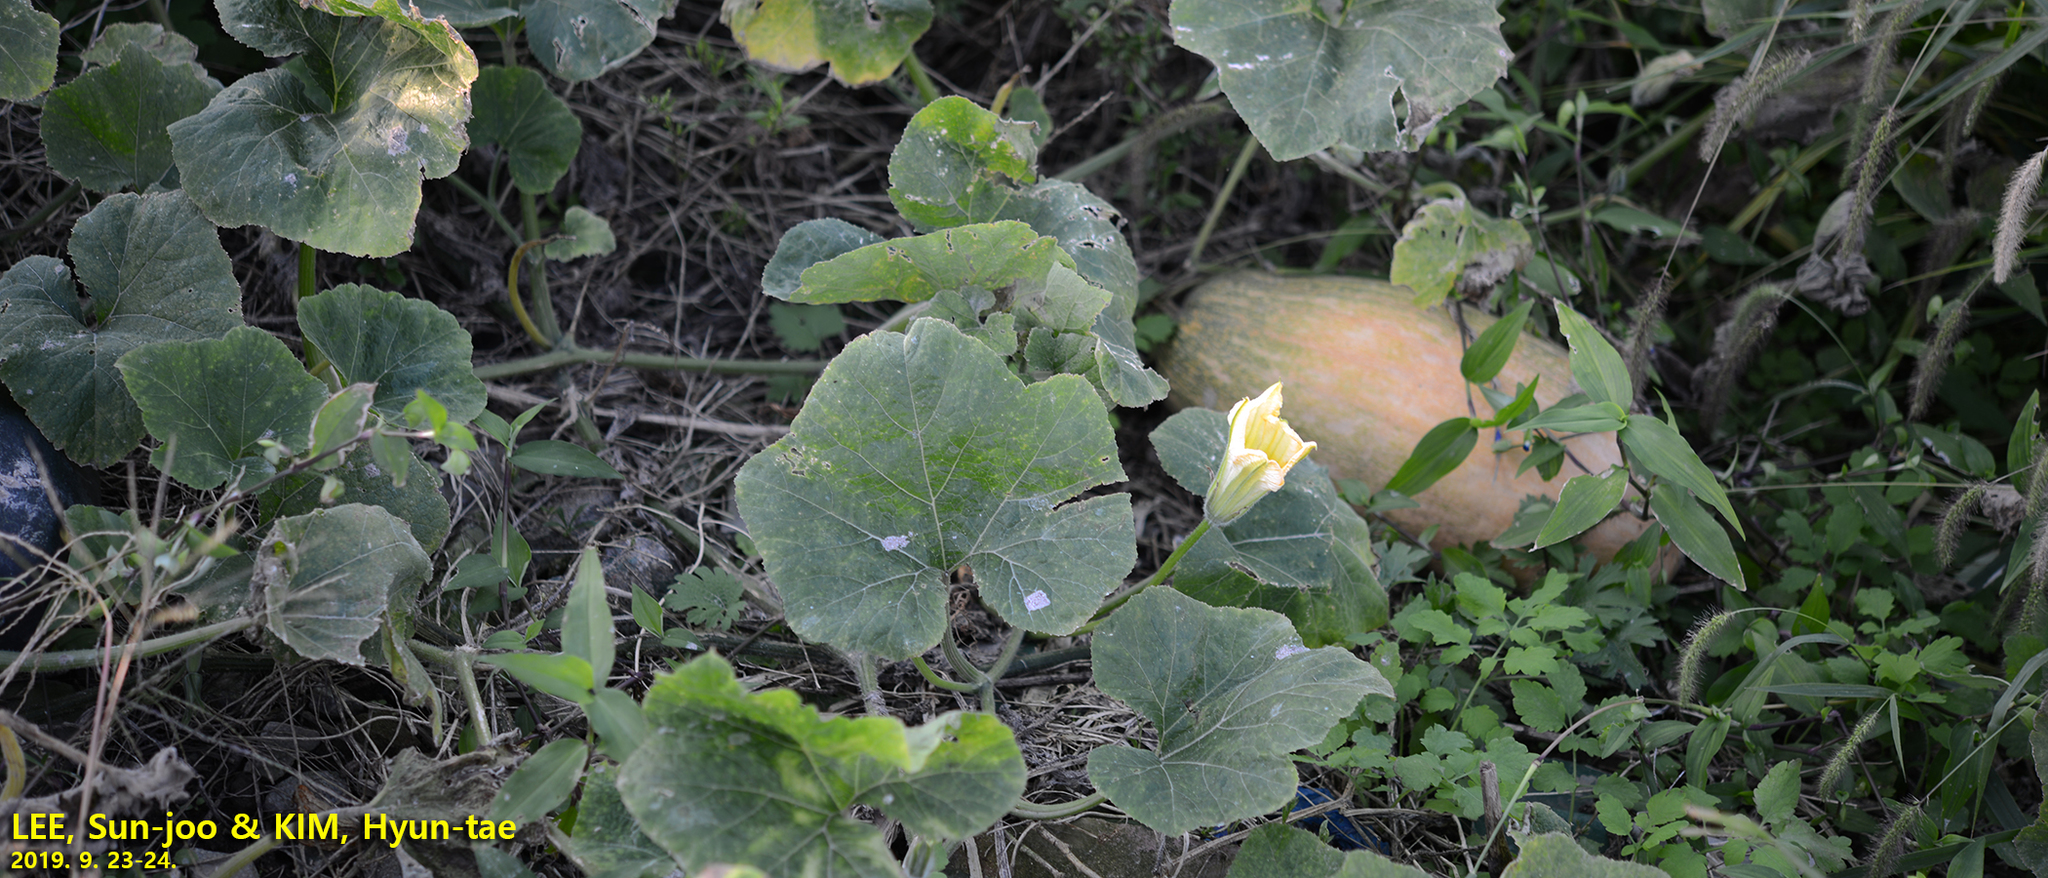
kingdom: Plantae
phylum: Tracheophyta
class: Magnoliopsida
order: Cucurbitales
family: Cucurbitaceae
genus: Cucurbita
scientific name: Cucurbita moschata
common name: Squash / pumpkin
